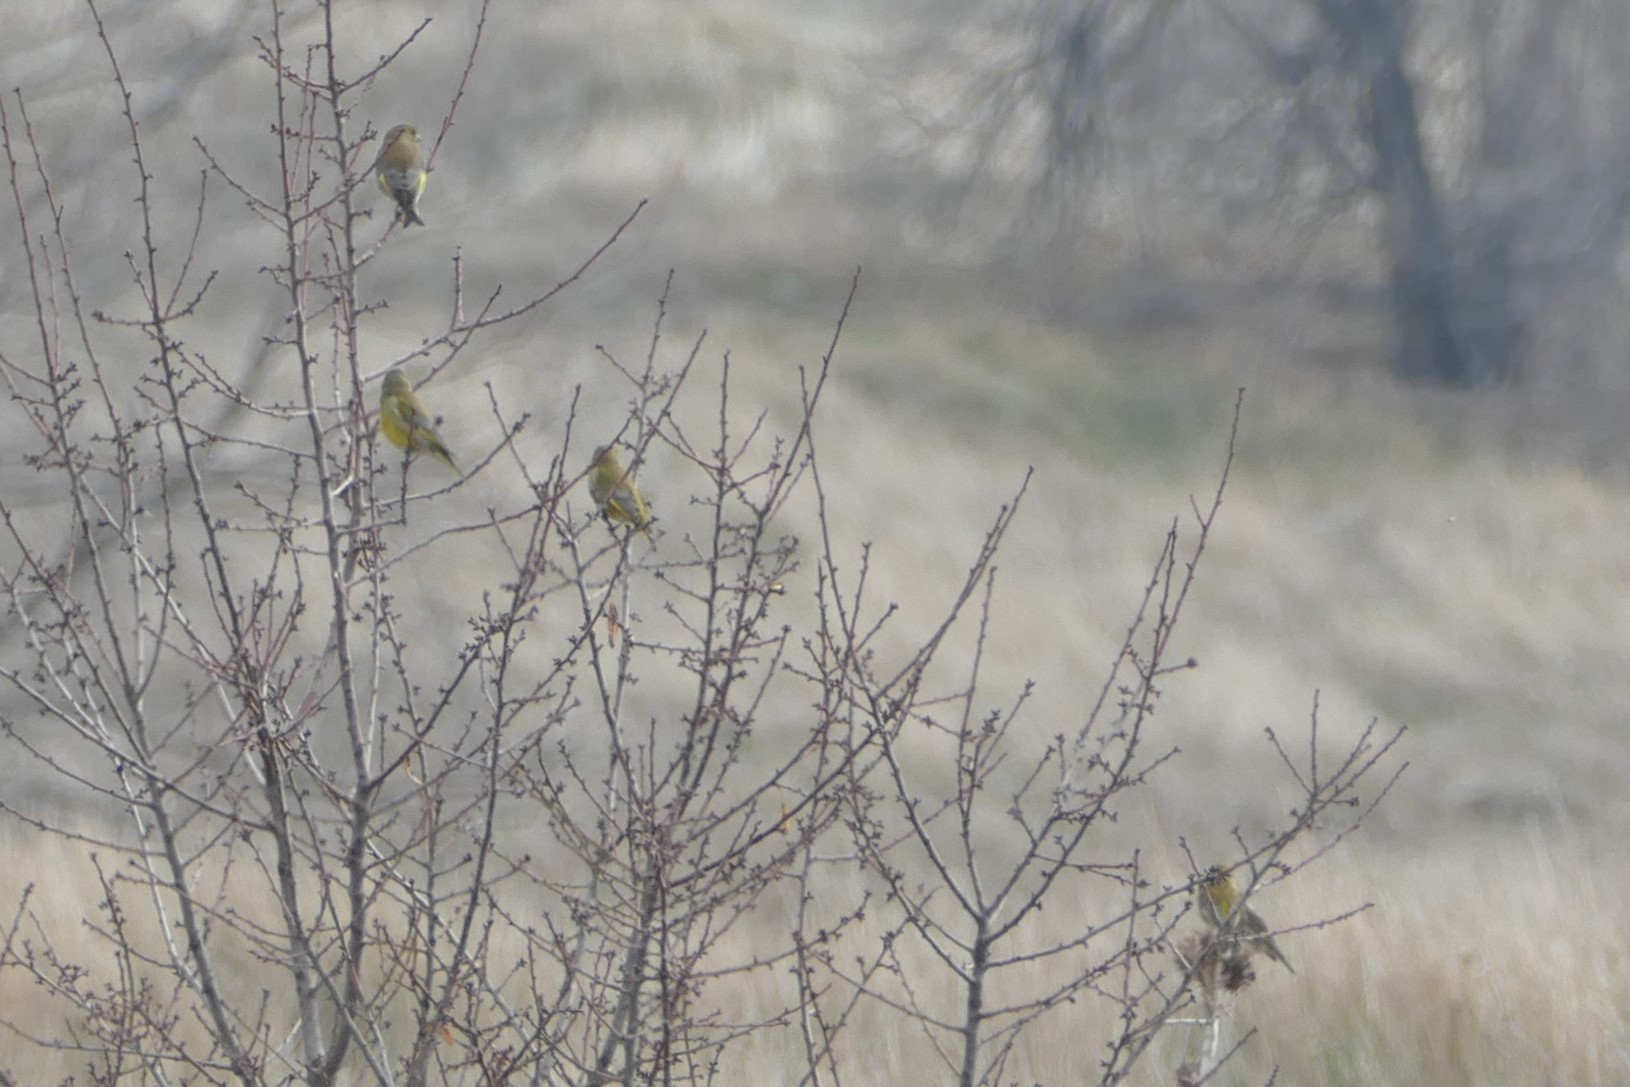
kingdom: Plantae
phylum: Tracheophyta
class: Liliopsida
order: Poales
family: Poaceae
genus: Chloris
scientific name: Chloris chloris
